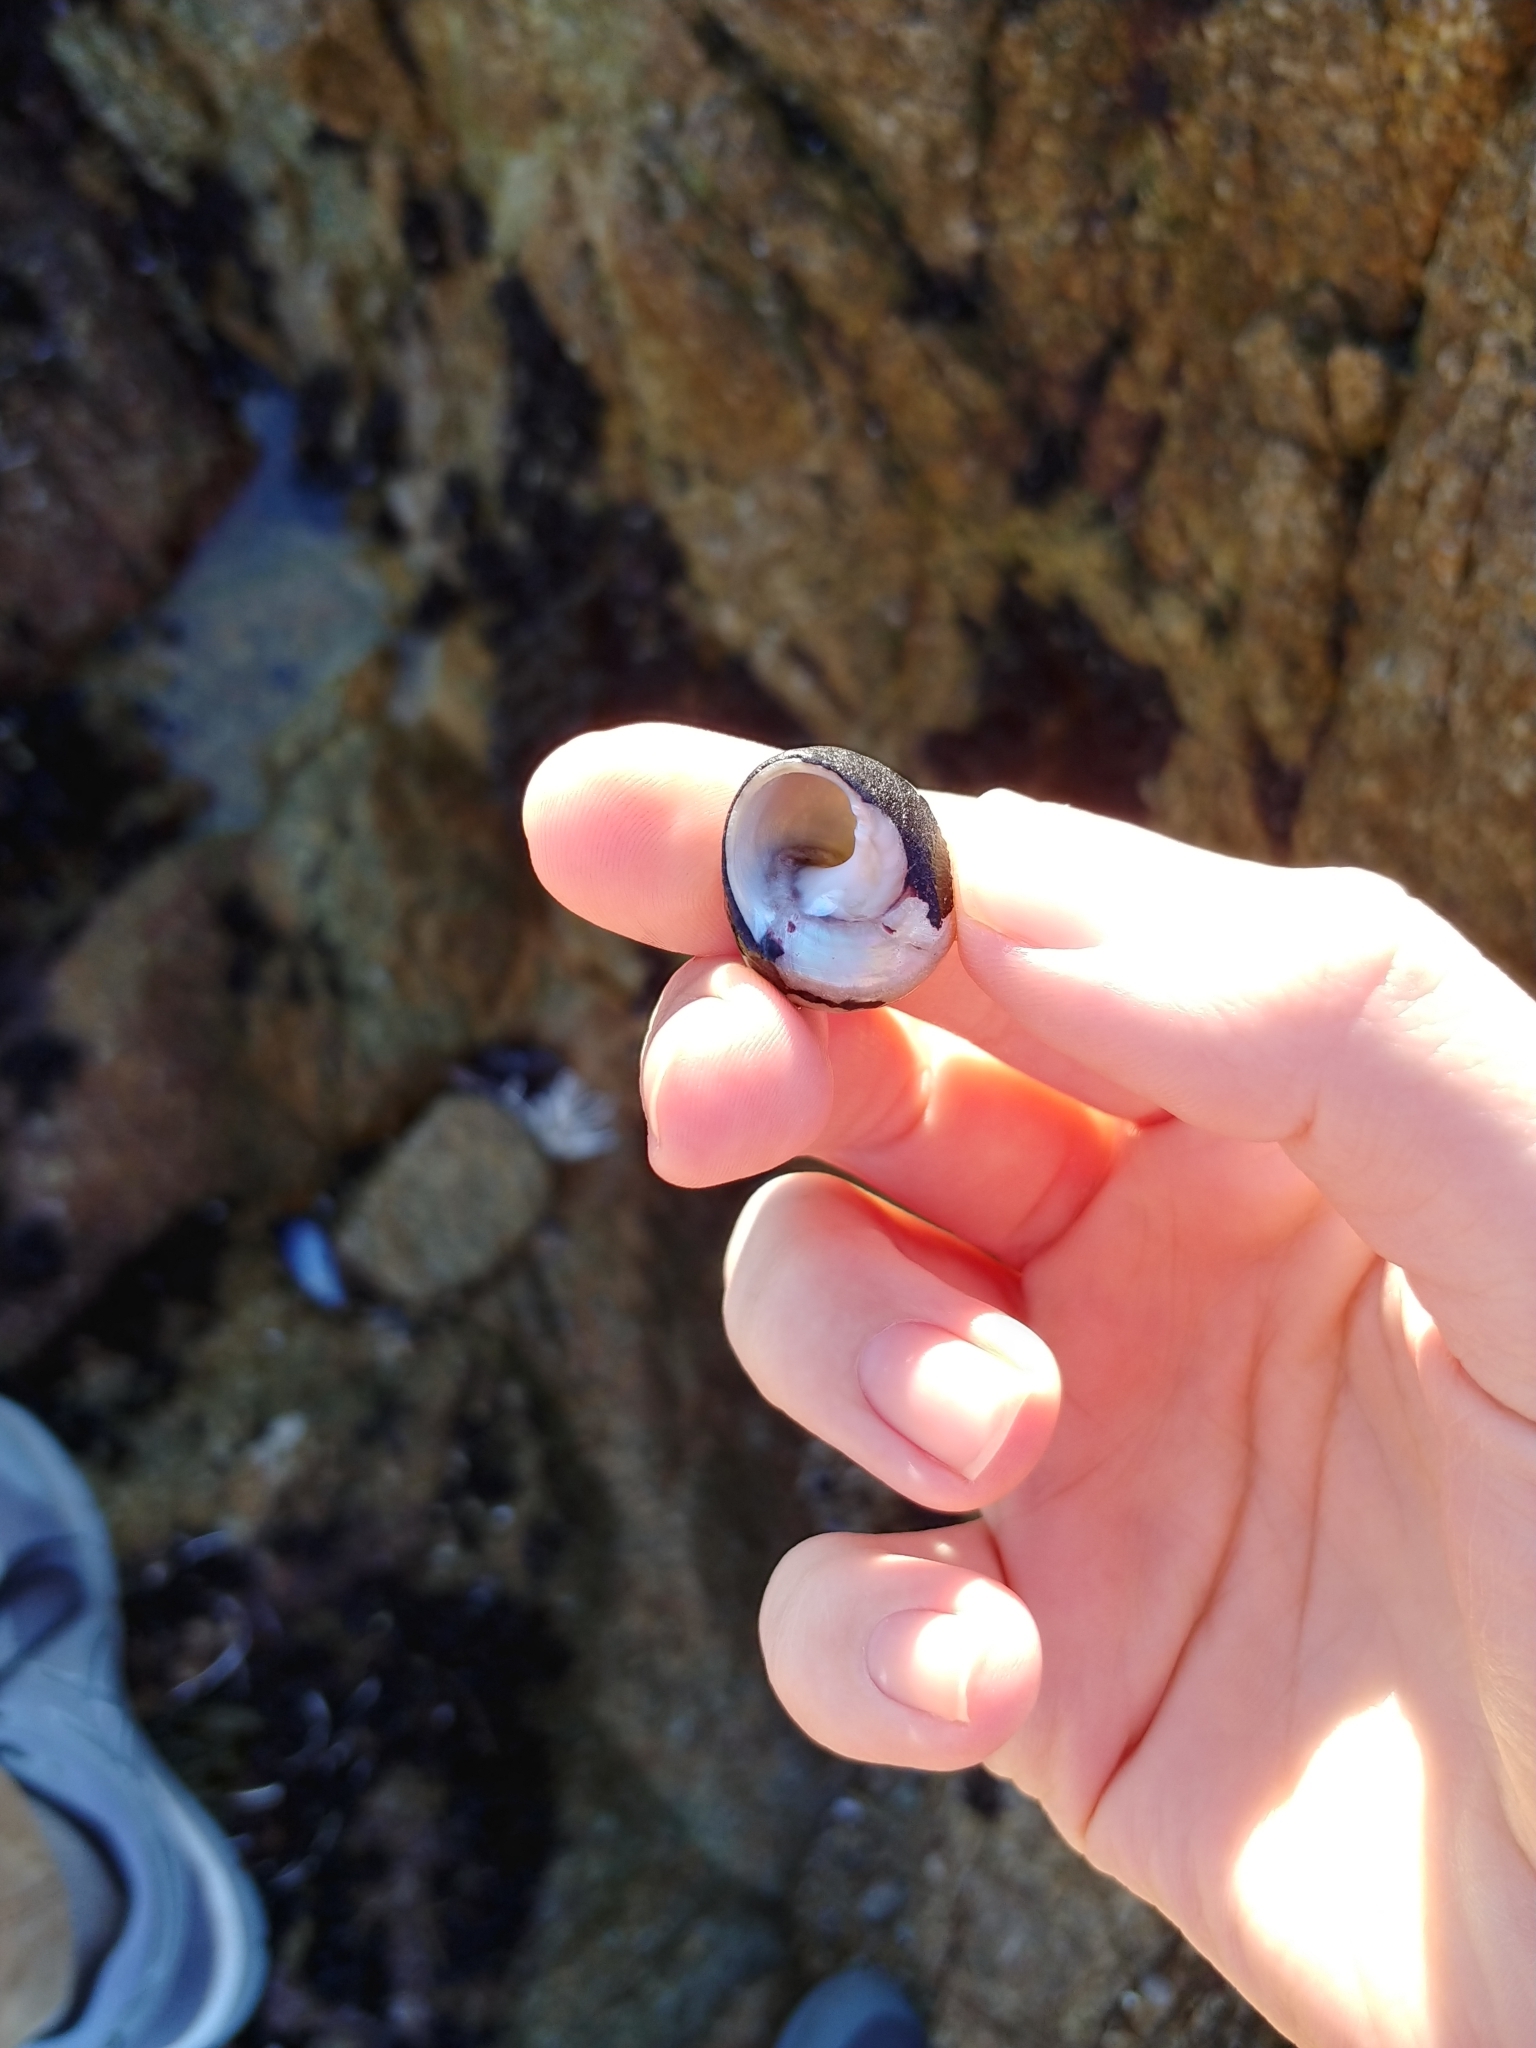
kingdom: Animalia
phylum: Mollusca
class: Gastropoda
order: Trochida
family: Tegulidae
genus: Tegula
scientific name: Tegula funebralis
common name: Black tegula
